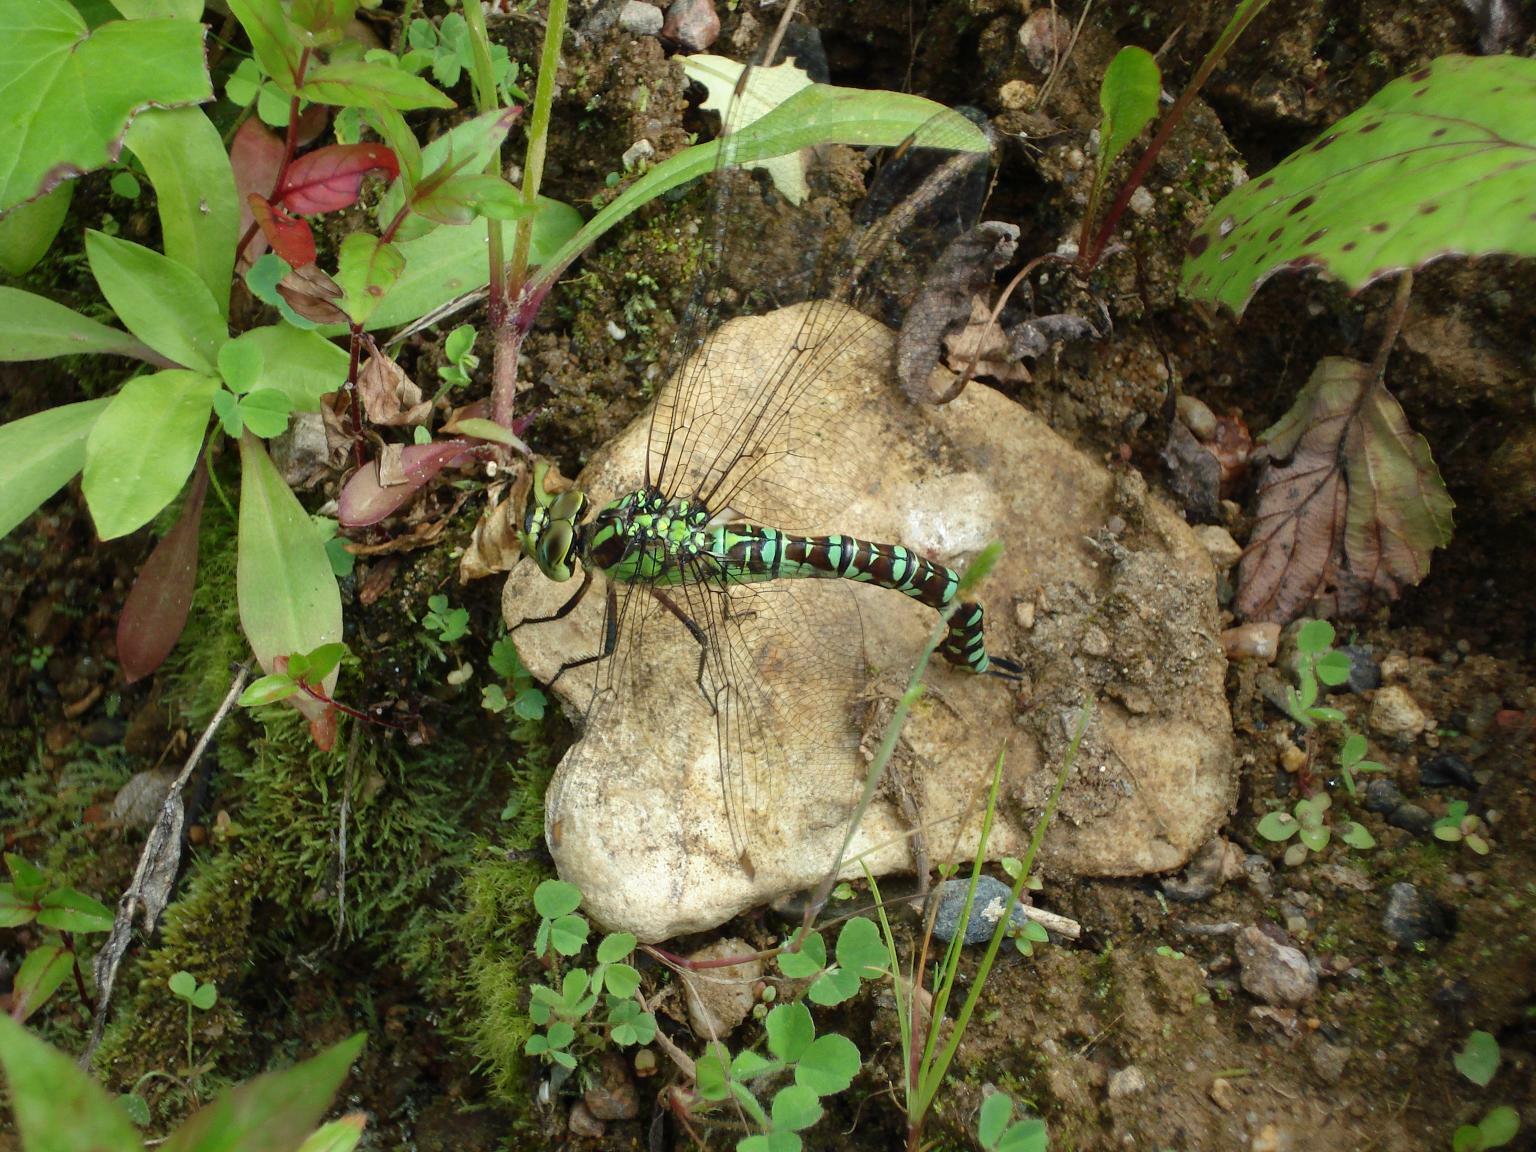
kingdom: Animalia
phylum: Arthropoda
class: Insecta
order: Odonata
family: Aeshnidae
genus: Aeshna
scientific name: Aeshna cyanea
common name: Southern hawker
